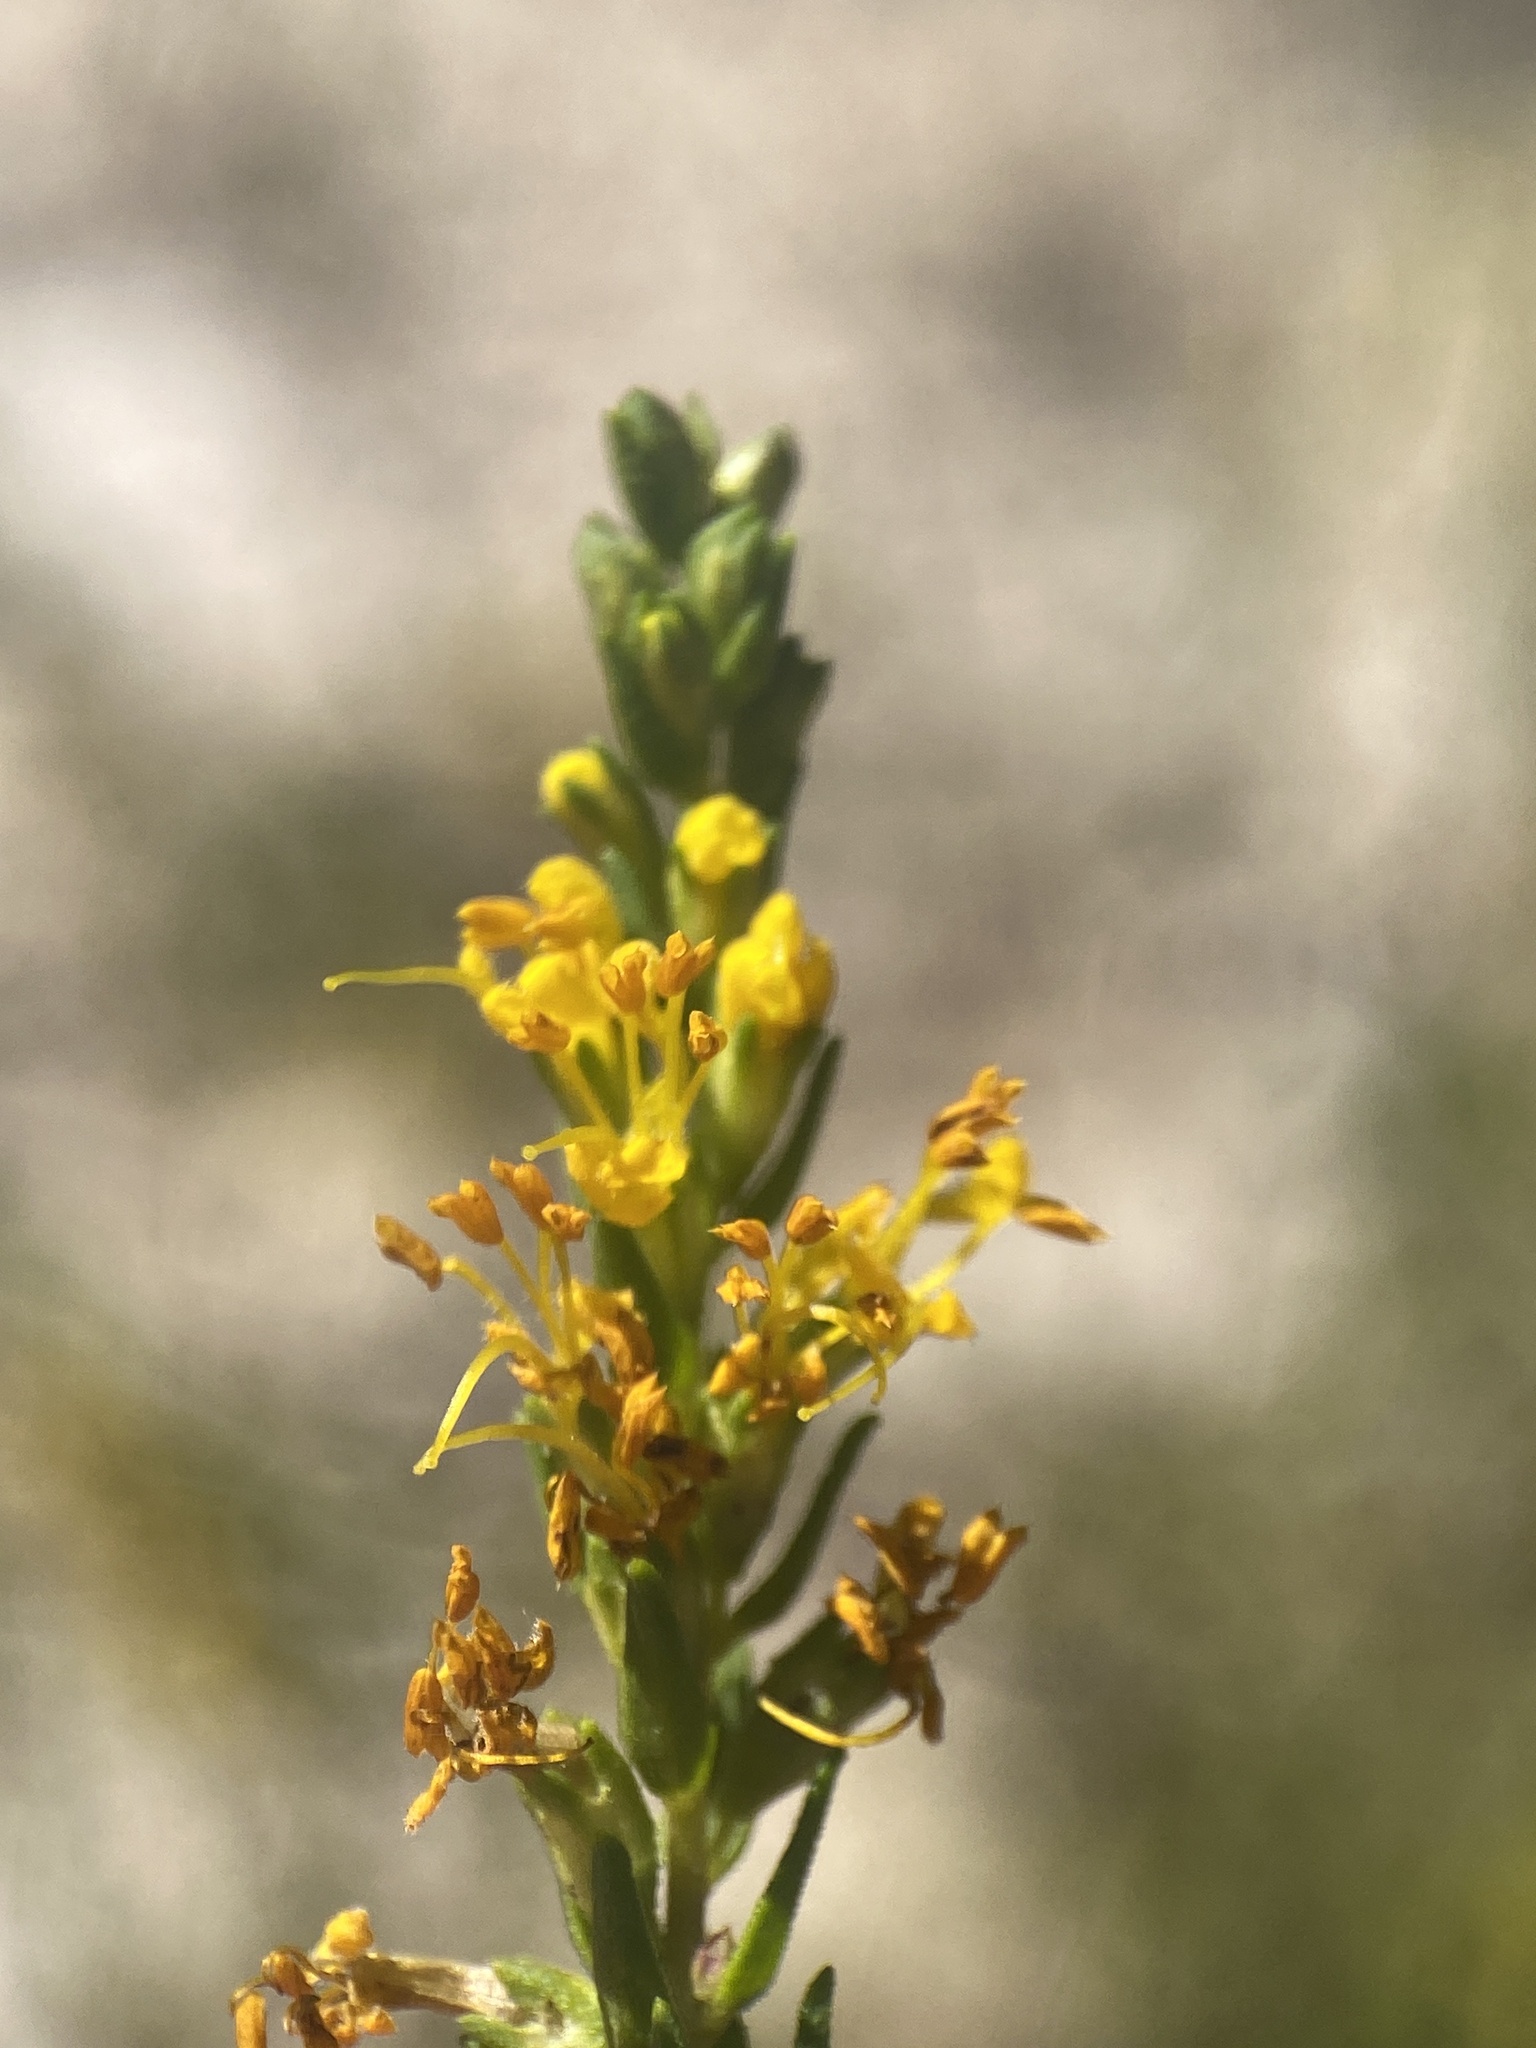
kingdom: Plantae
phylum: Tracheophyta
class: Magnoliopsida
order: Lamiales
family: Orobanchaceae
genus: Odontites
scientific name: Odontites luteus
